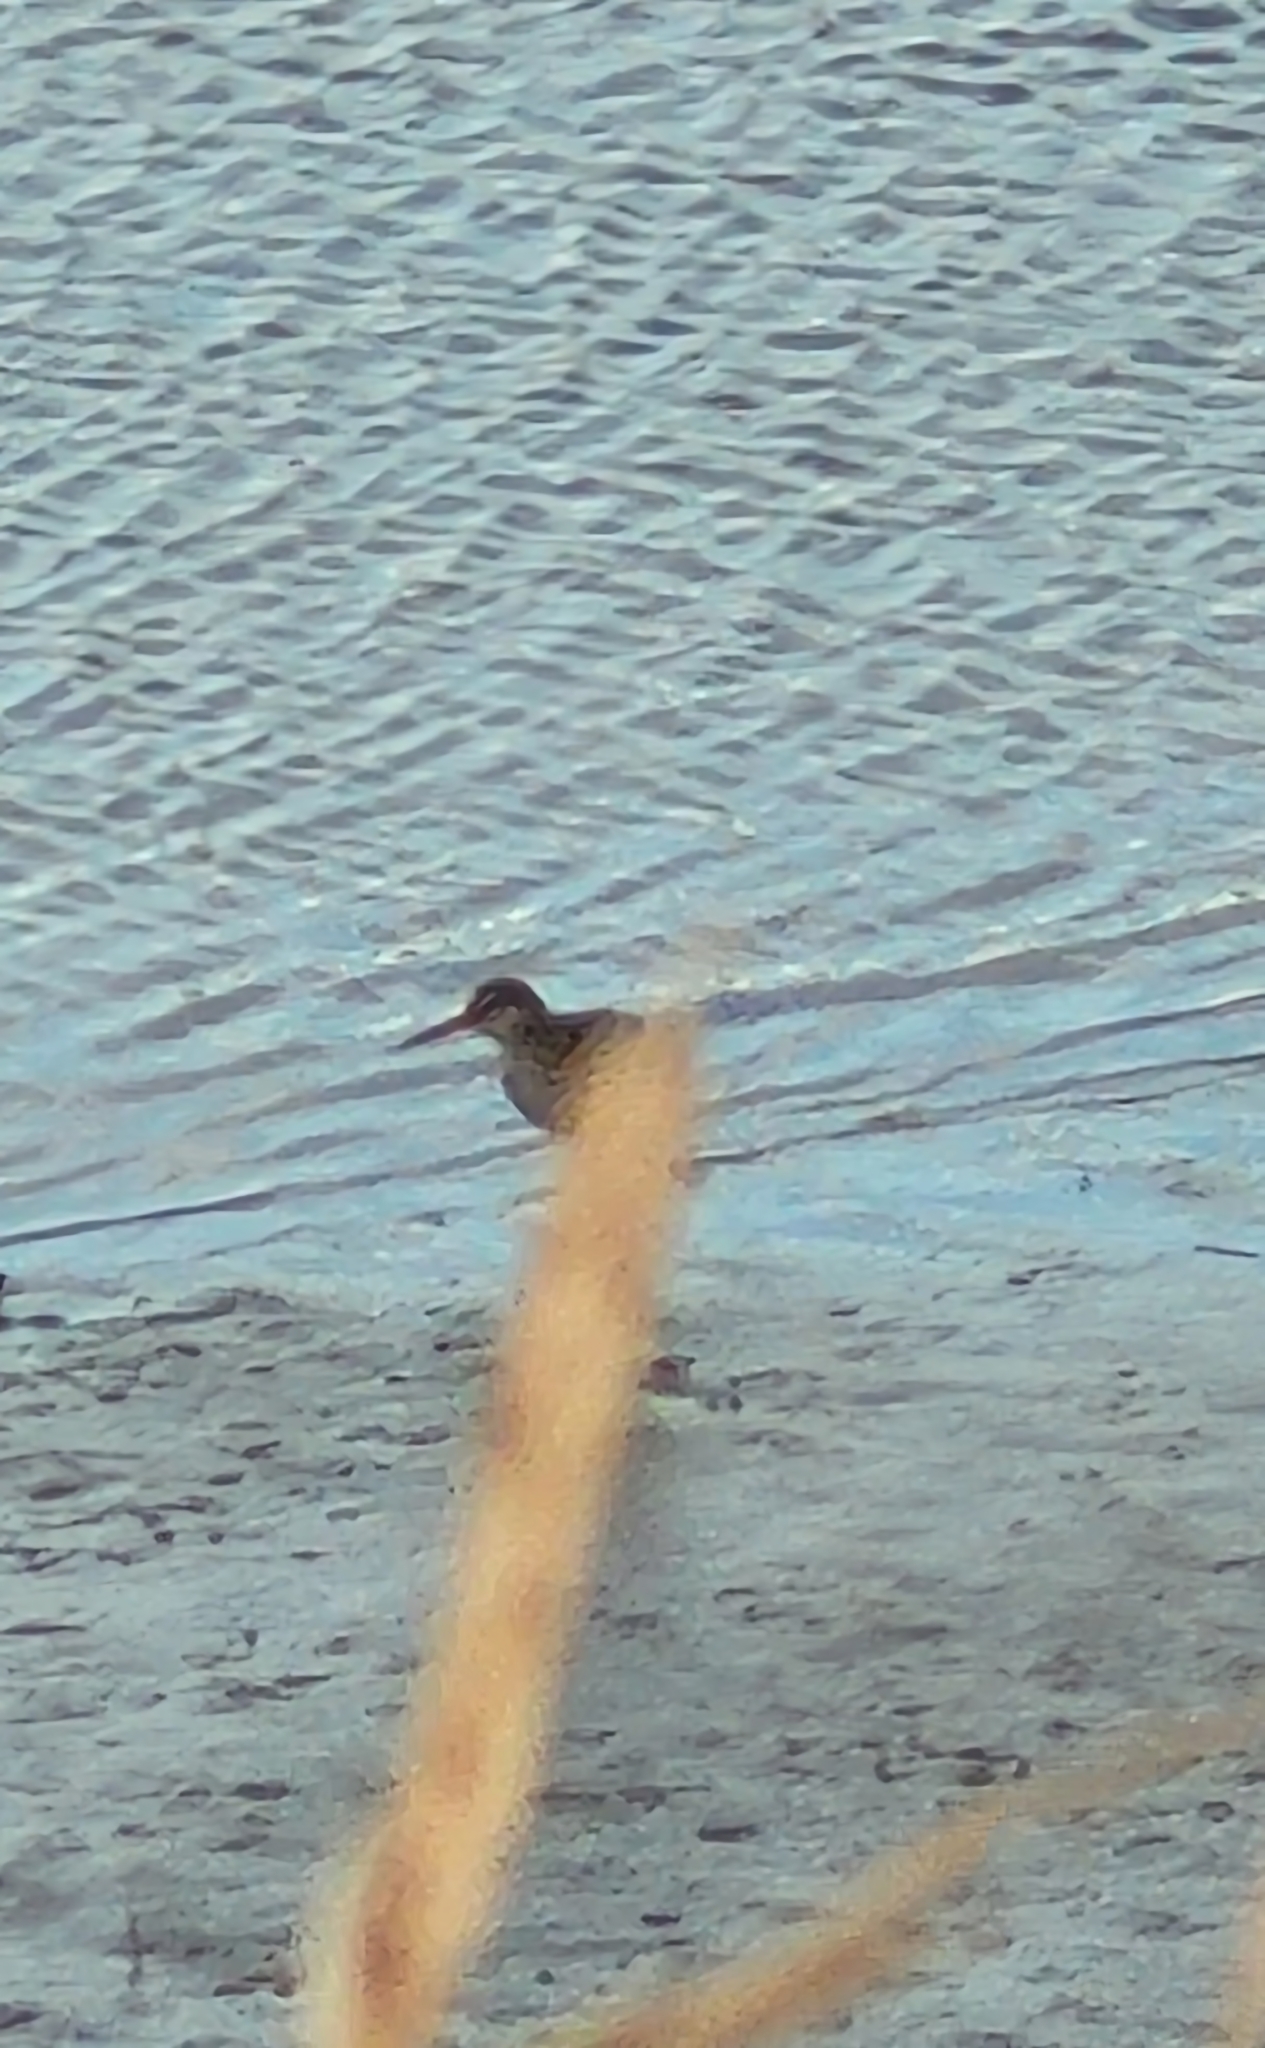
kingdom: Animalia
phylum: Chordata
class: Aves
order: Charadriiformes
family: Scolopacidae
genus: Tringa
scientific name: Tringa totanus
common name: Common redshank
